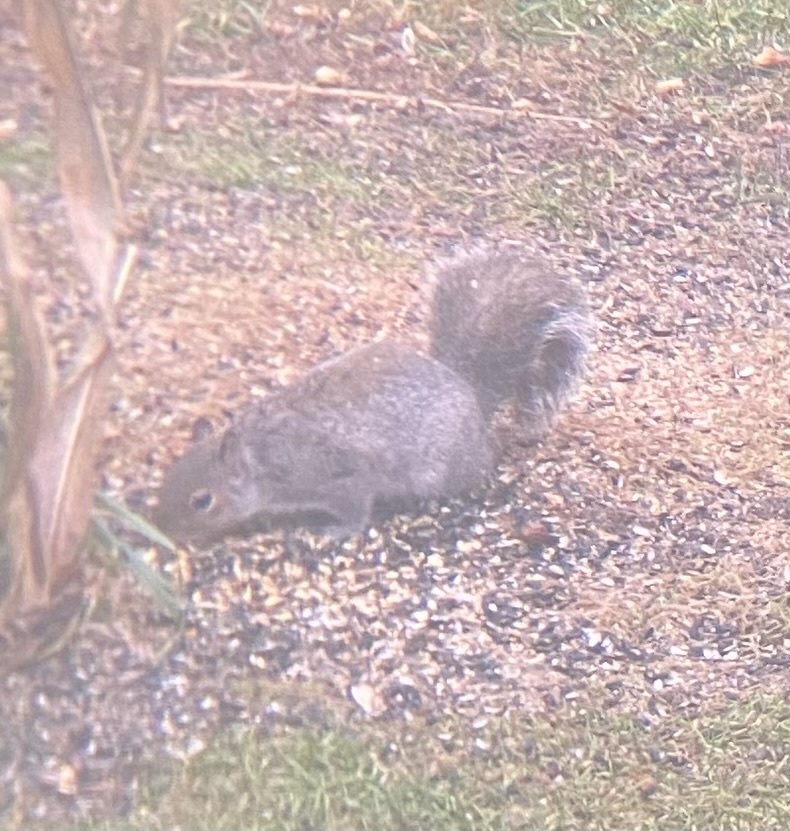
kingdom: Animalia
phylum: Chordata
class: Mammalia
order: Rodentia
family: Sciuridae
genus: Sciurus
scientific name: Sciurus carolinensis
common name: Eastern gray squirrel
